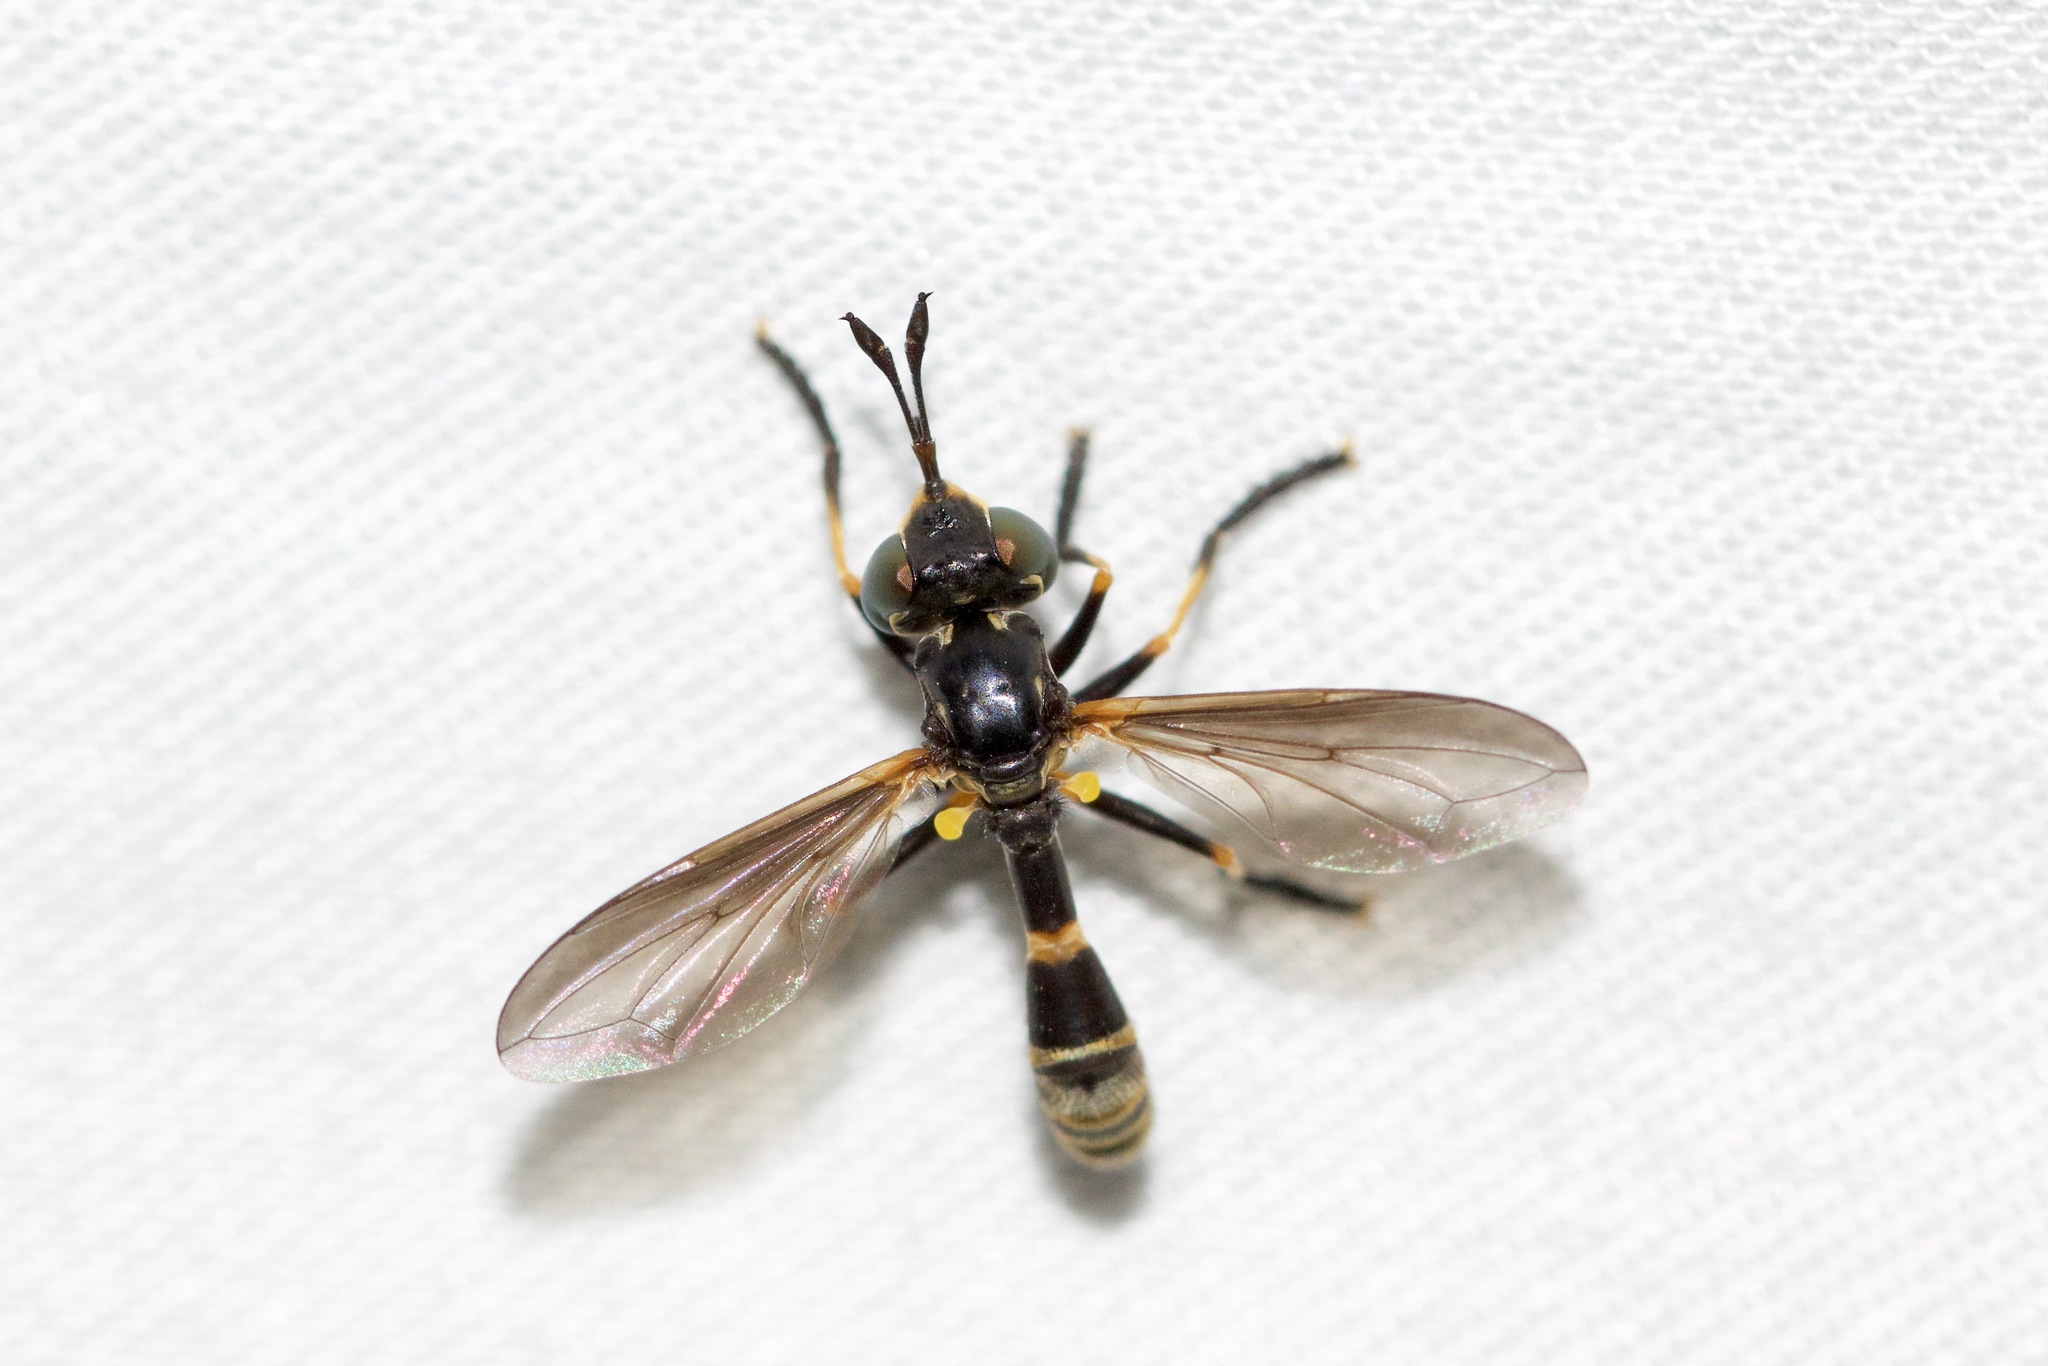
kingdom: Animalia
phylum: Arthropoda
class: Insecta
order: Diptera
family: Conopidae
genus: Physoconops
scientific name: Physoconops obscuripennis
